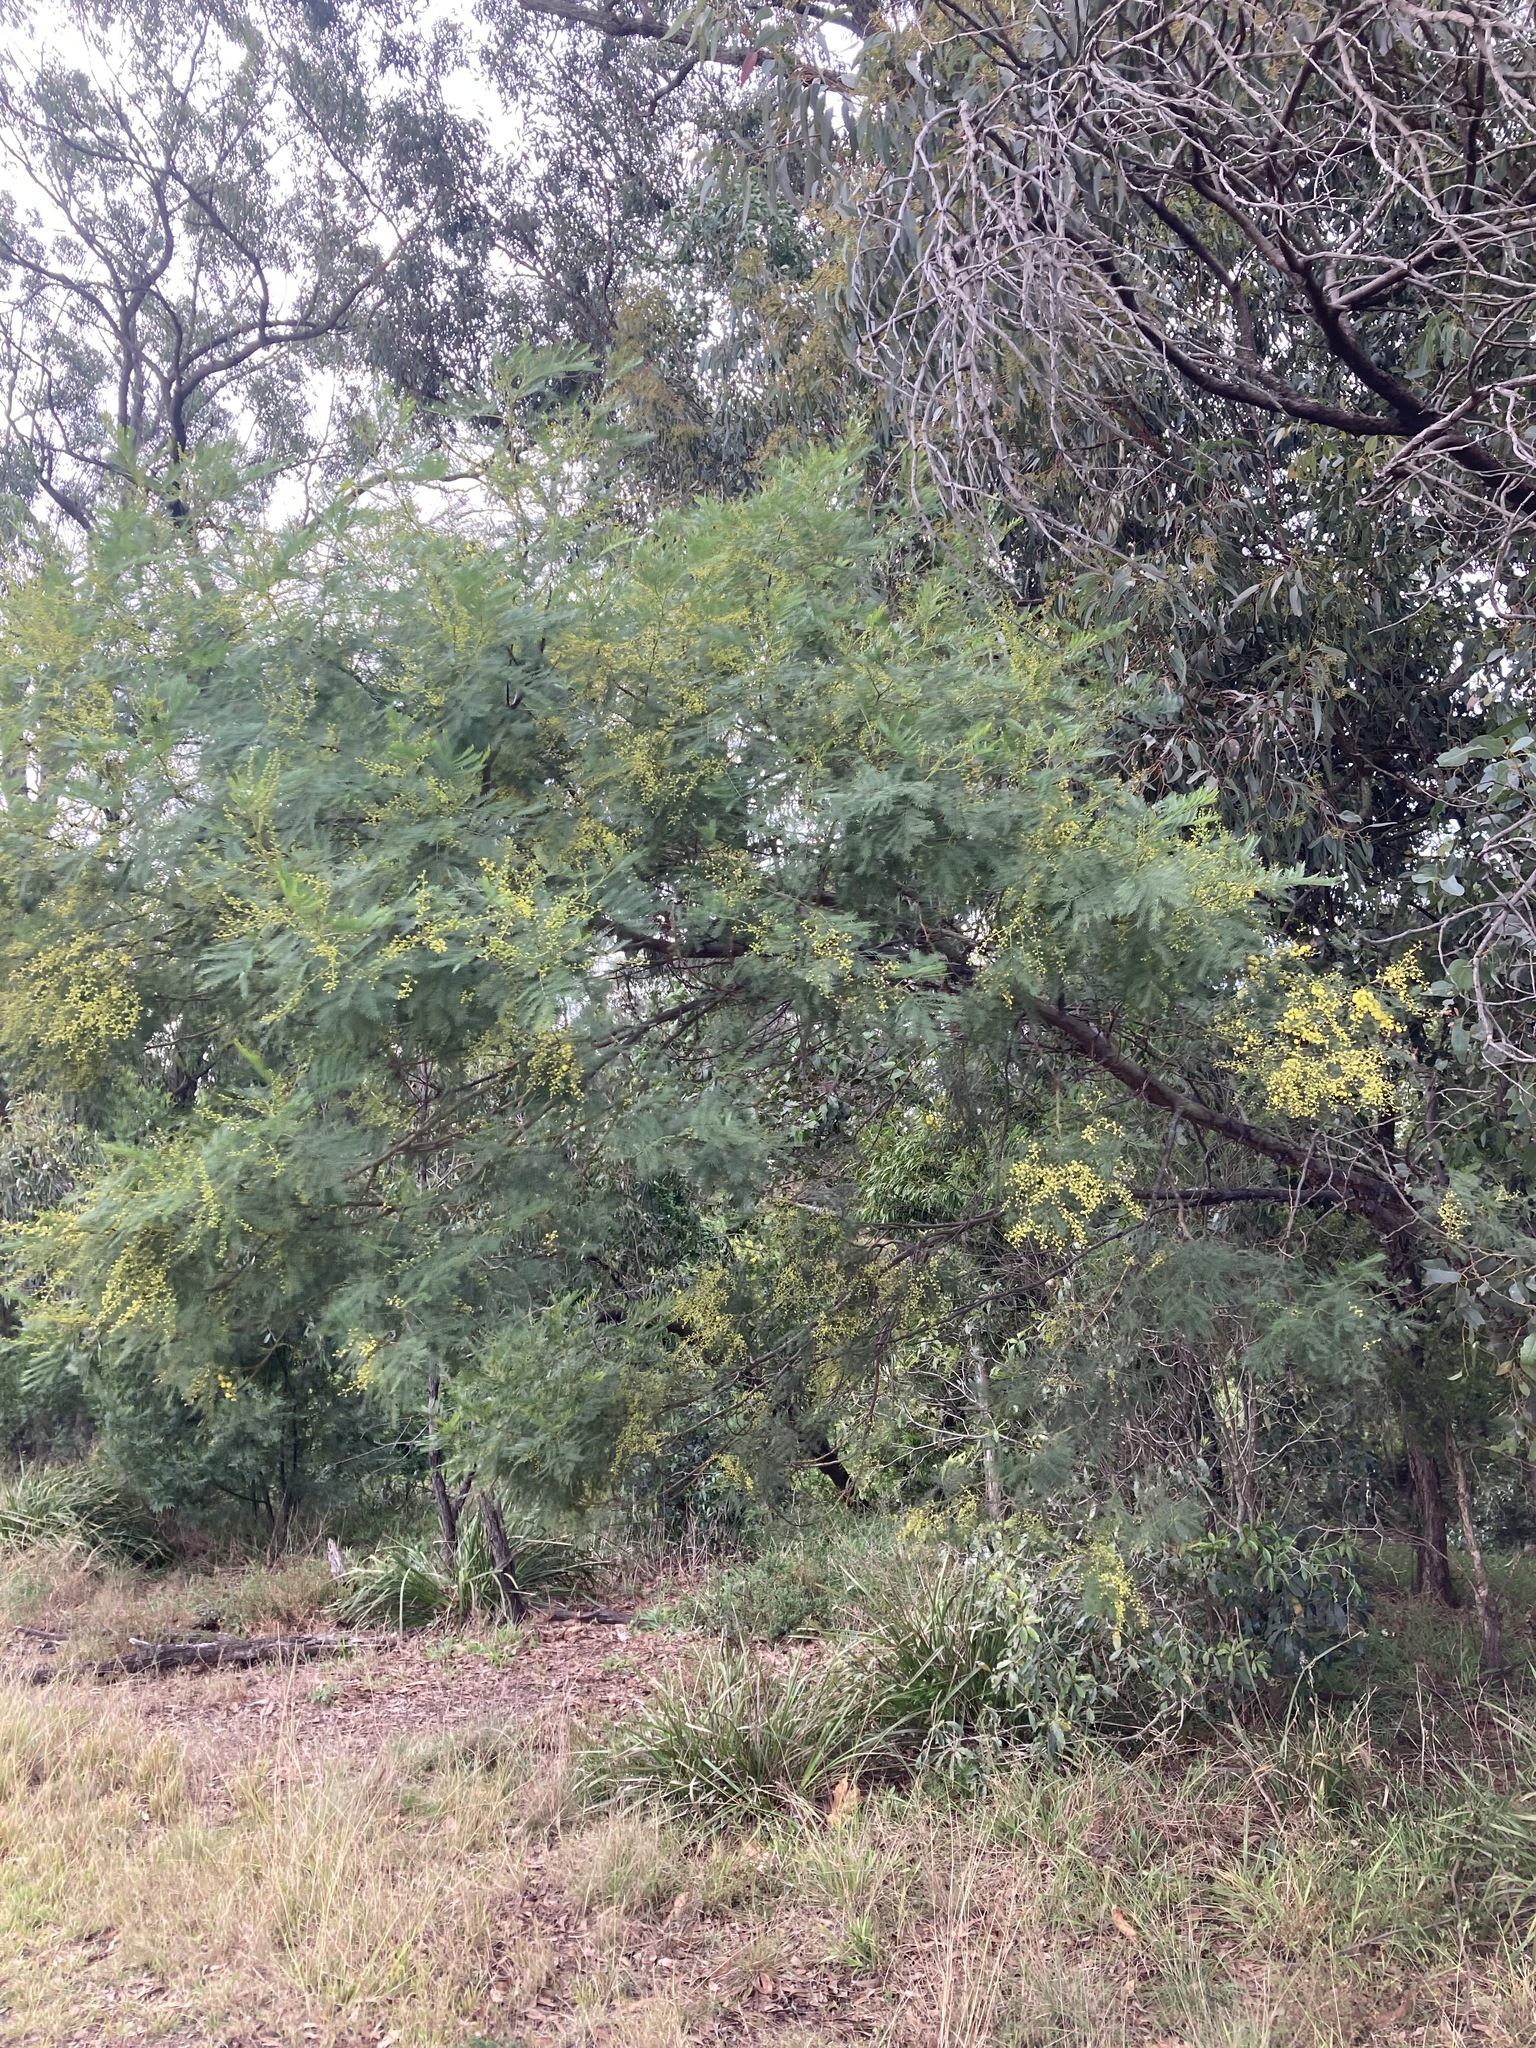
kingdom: Plantae
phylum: Tracheophyta
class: Magnoliopsida
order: Fabales
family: Fabaceae
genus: Acacia
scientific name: Acacia decurrens
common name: Green wattle
